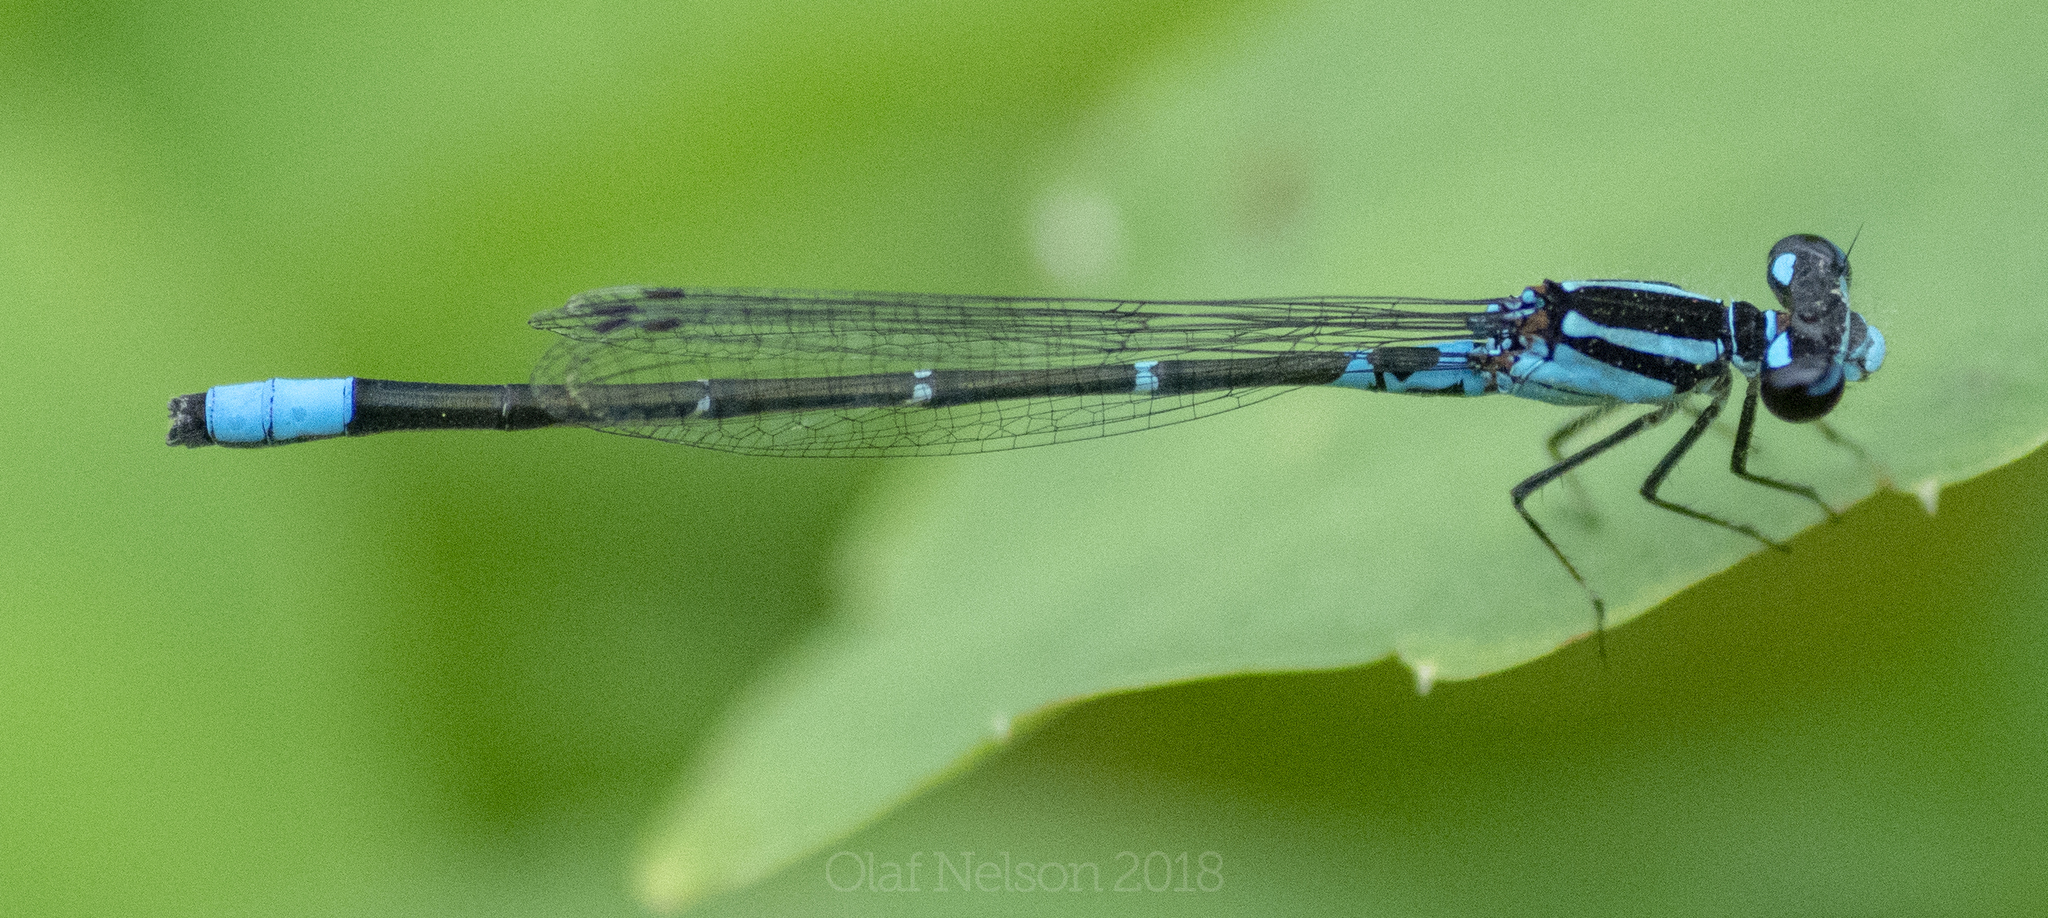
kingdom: Animalia
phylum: Arthropoda
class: Insecta
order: Odonata
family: Coenagrionidae
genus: Enallagma
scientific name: Enallagma geminatum
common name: Skimming bluet
